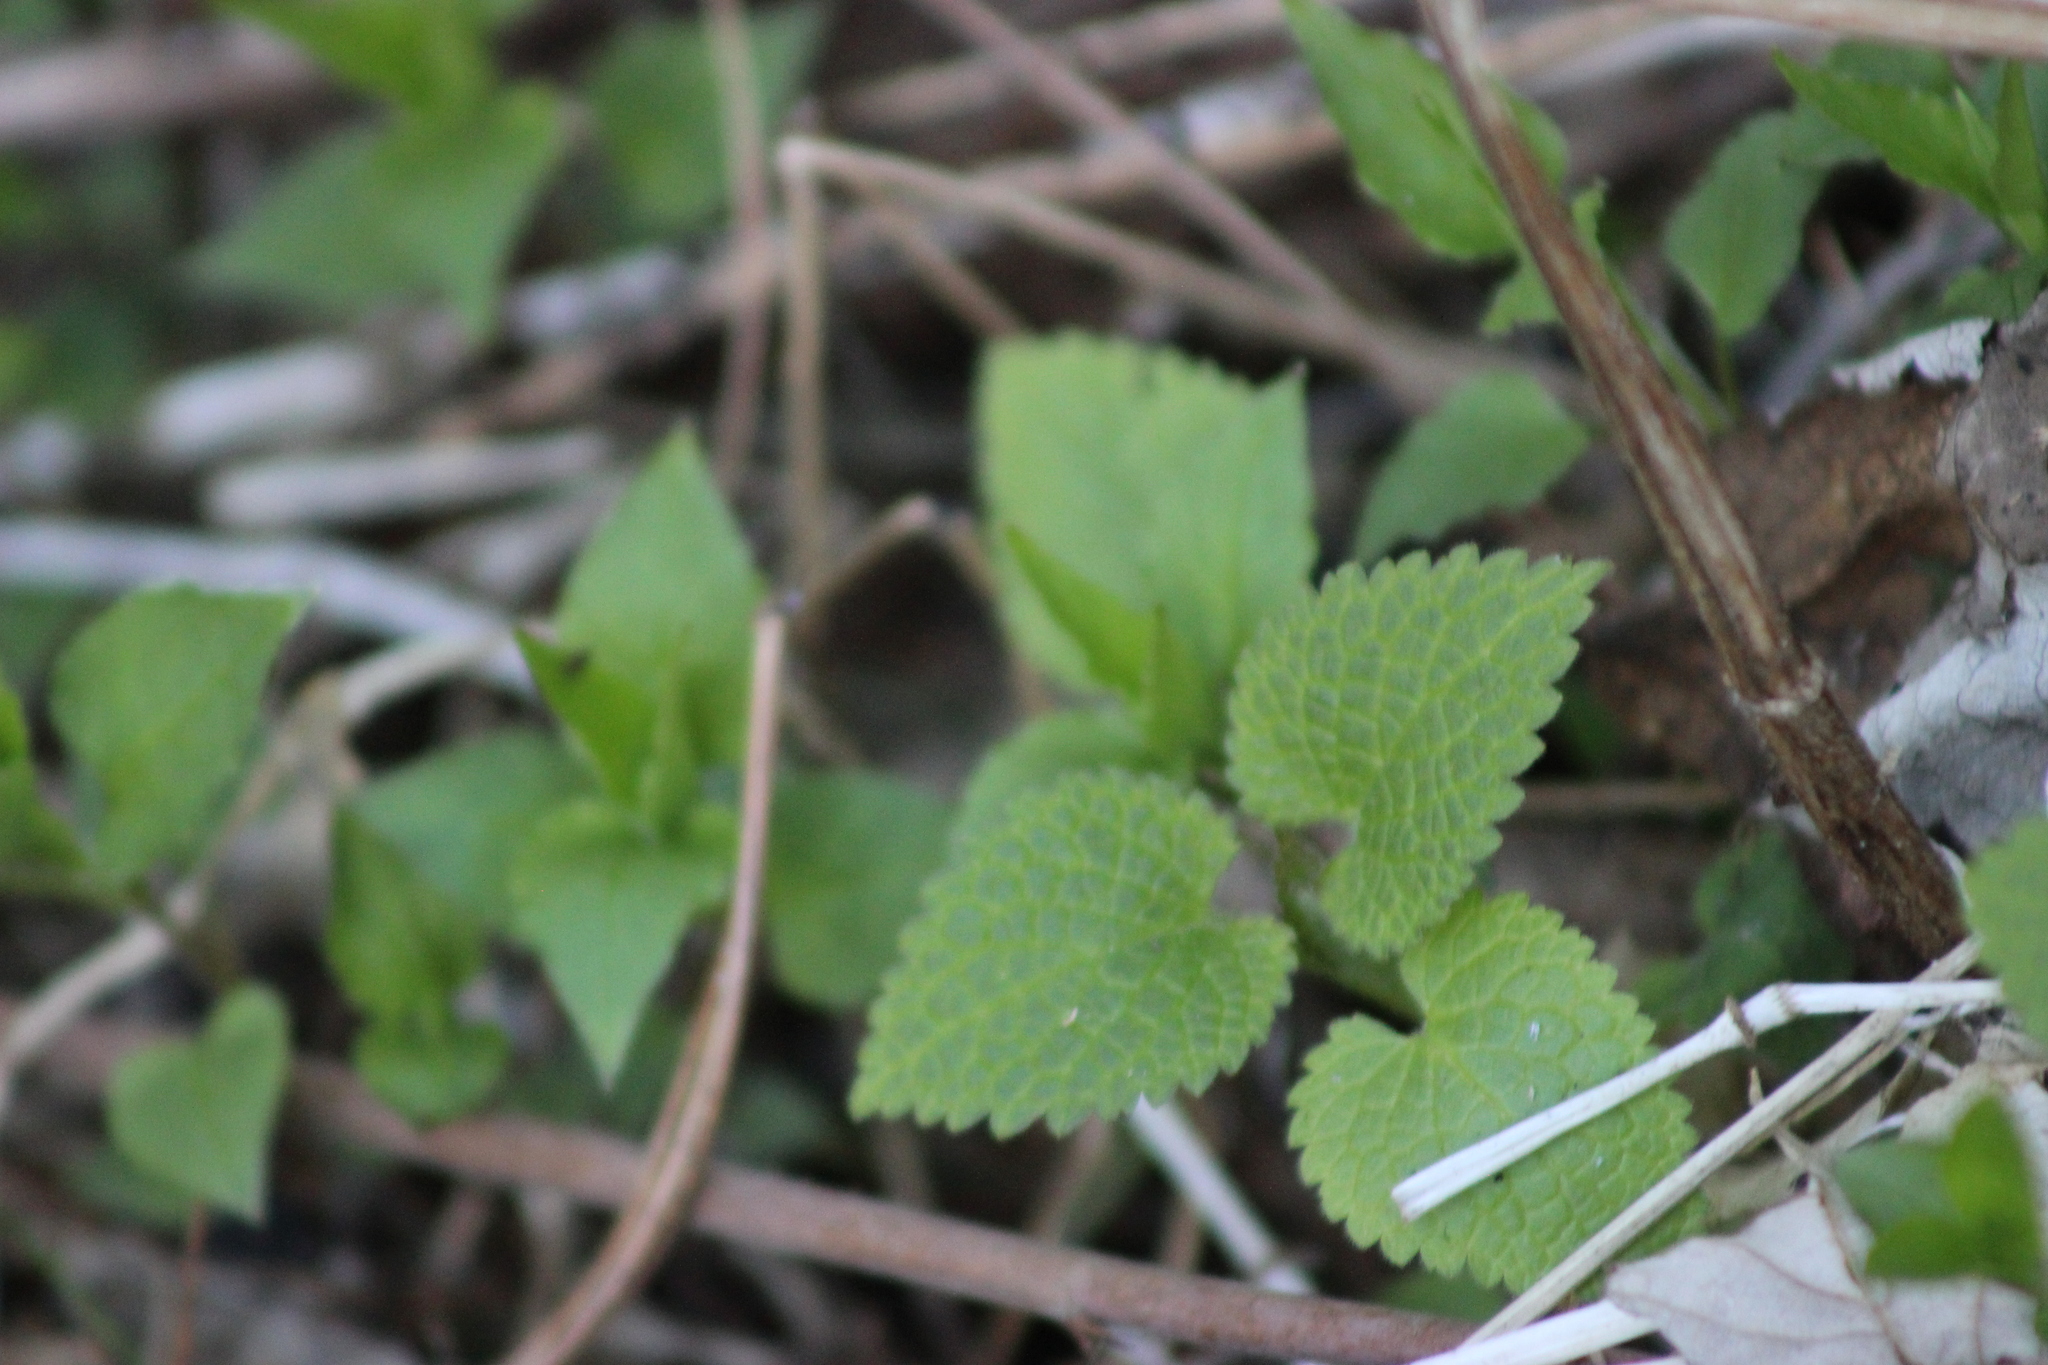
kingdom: Plantae
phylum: Tracheophyta
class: Magnoliopsida
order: Lamiales
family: Lamiaceae
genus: Lamium
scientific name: Lamium album
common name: White dead-nettle
